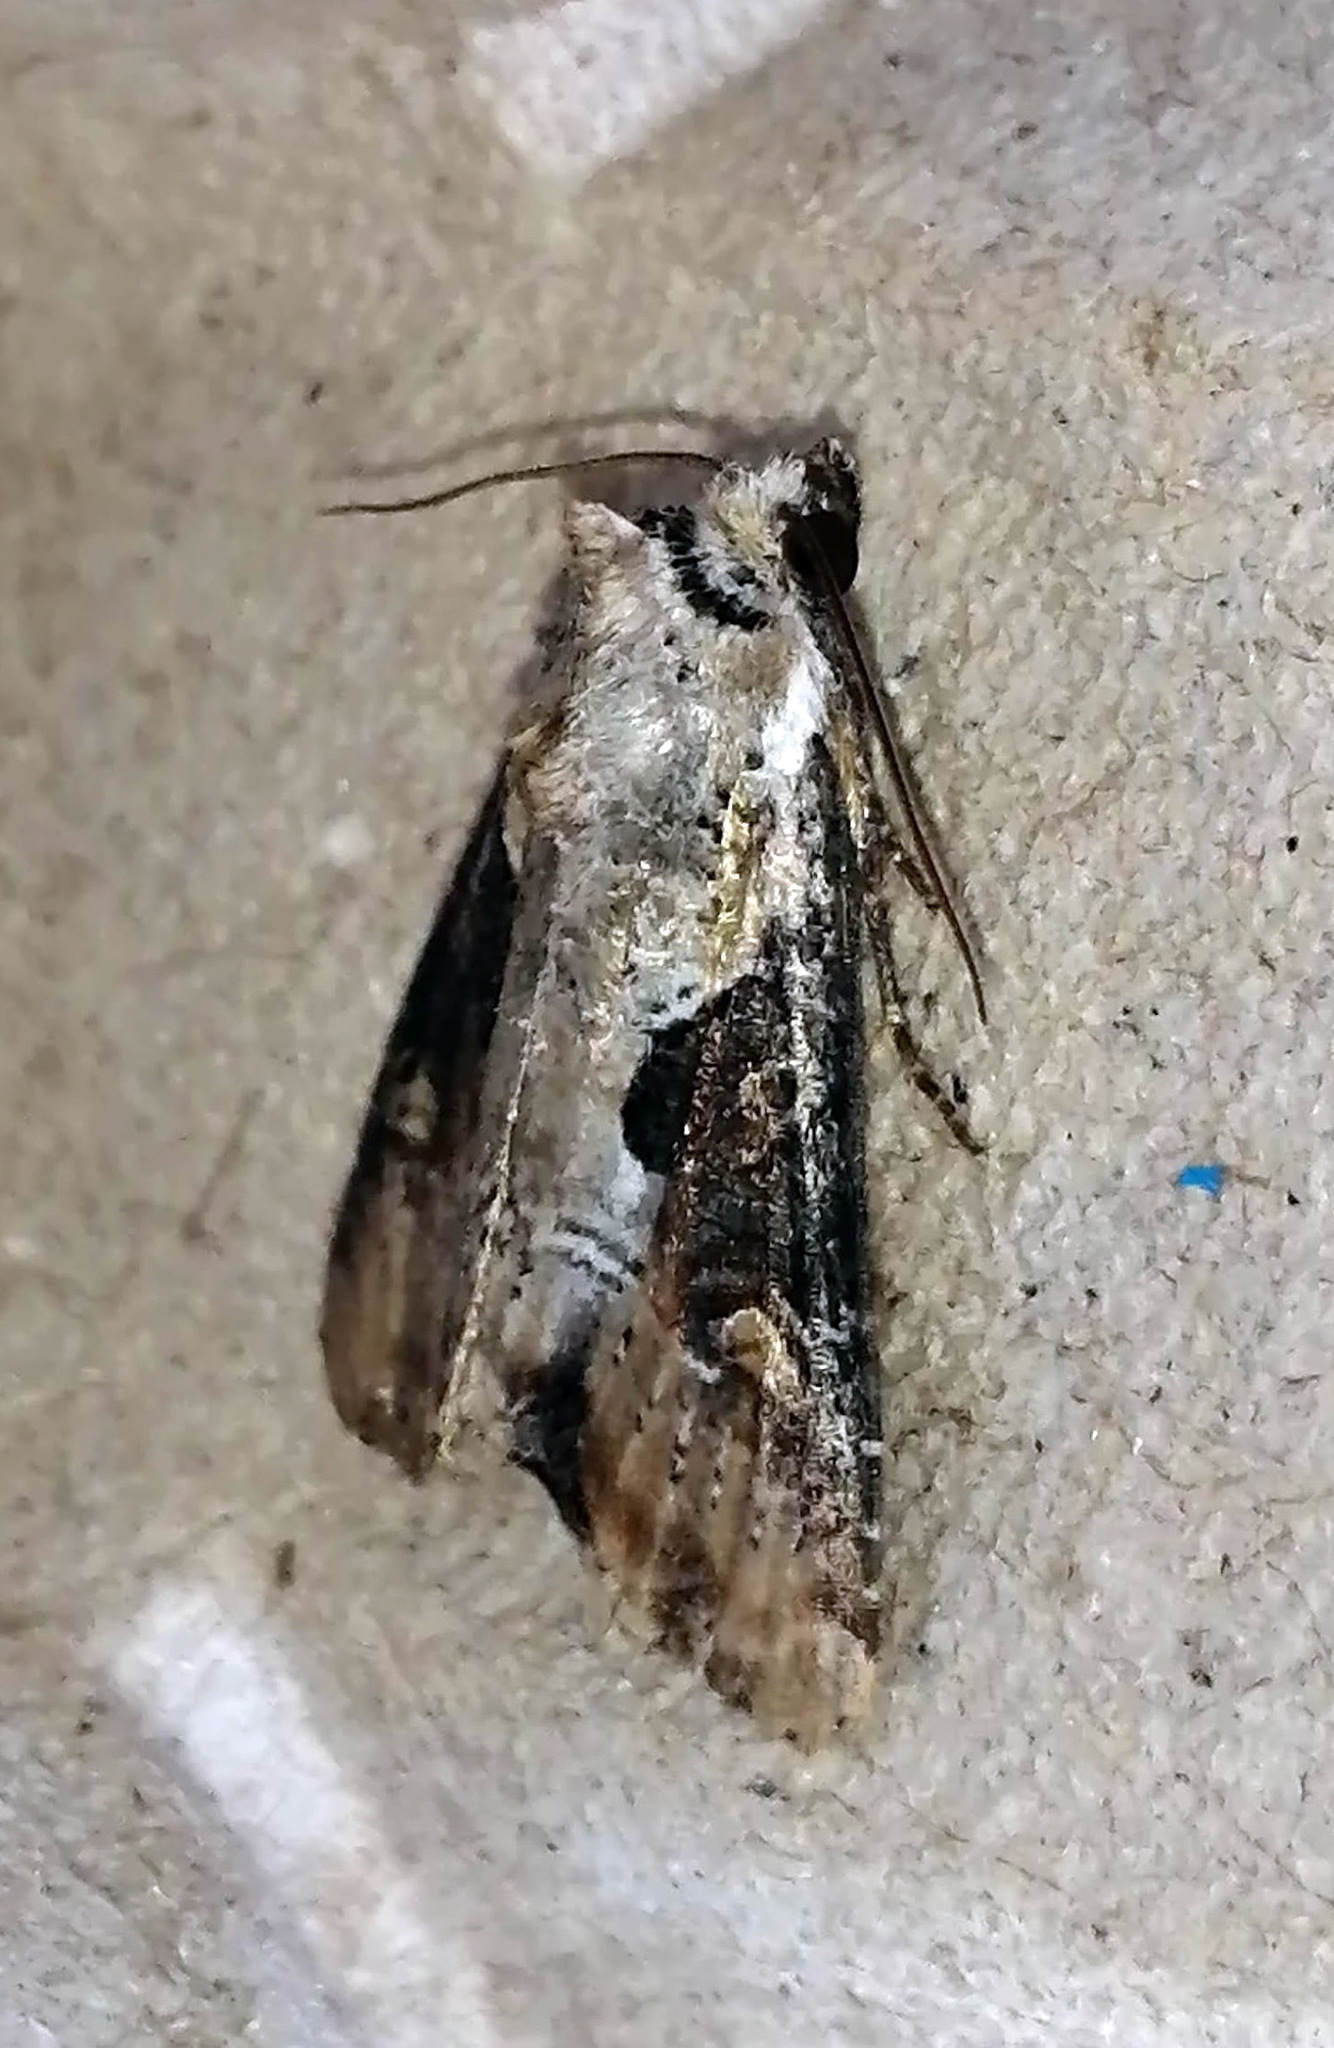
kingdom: Animalia
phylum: Arthropoda
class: Insecta
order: Lepidoptera
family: Noctuidae
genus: Lateroligia
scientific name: Lateroligia ophiogramma
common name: Double lobed
